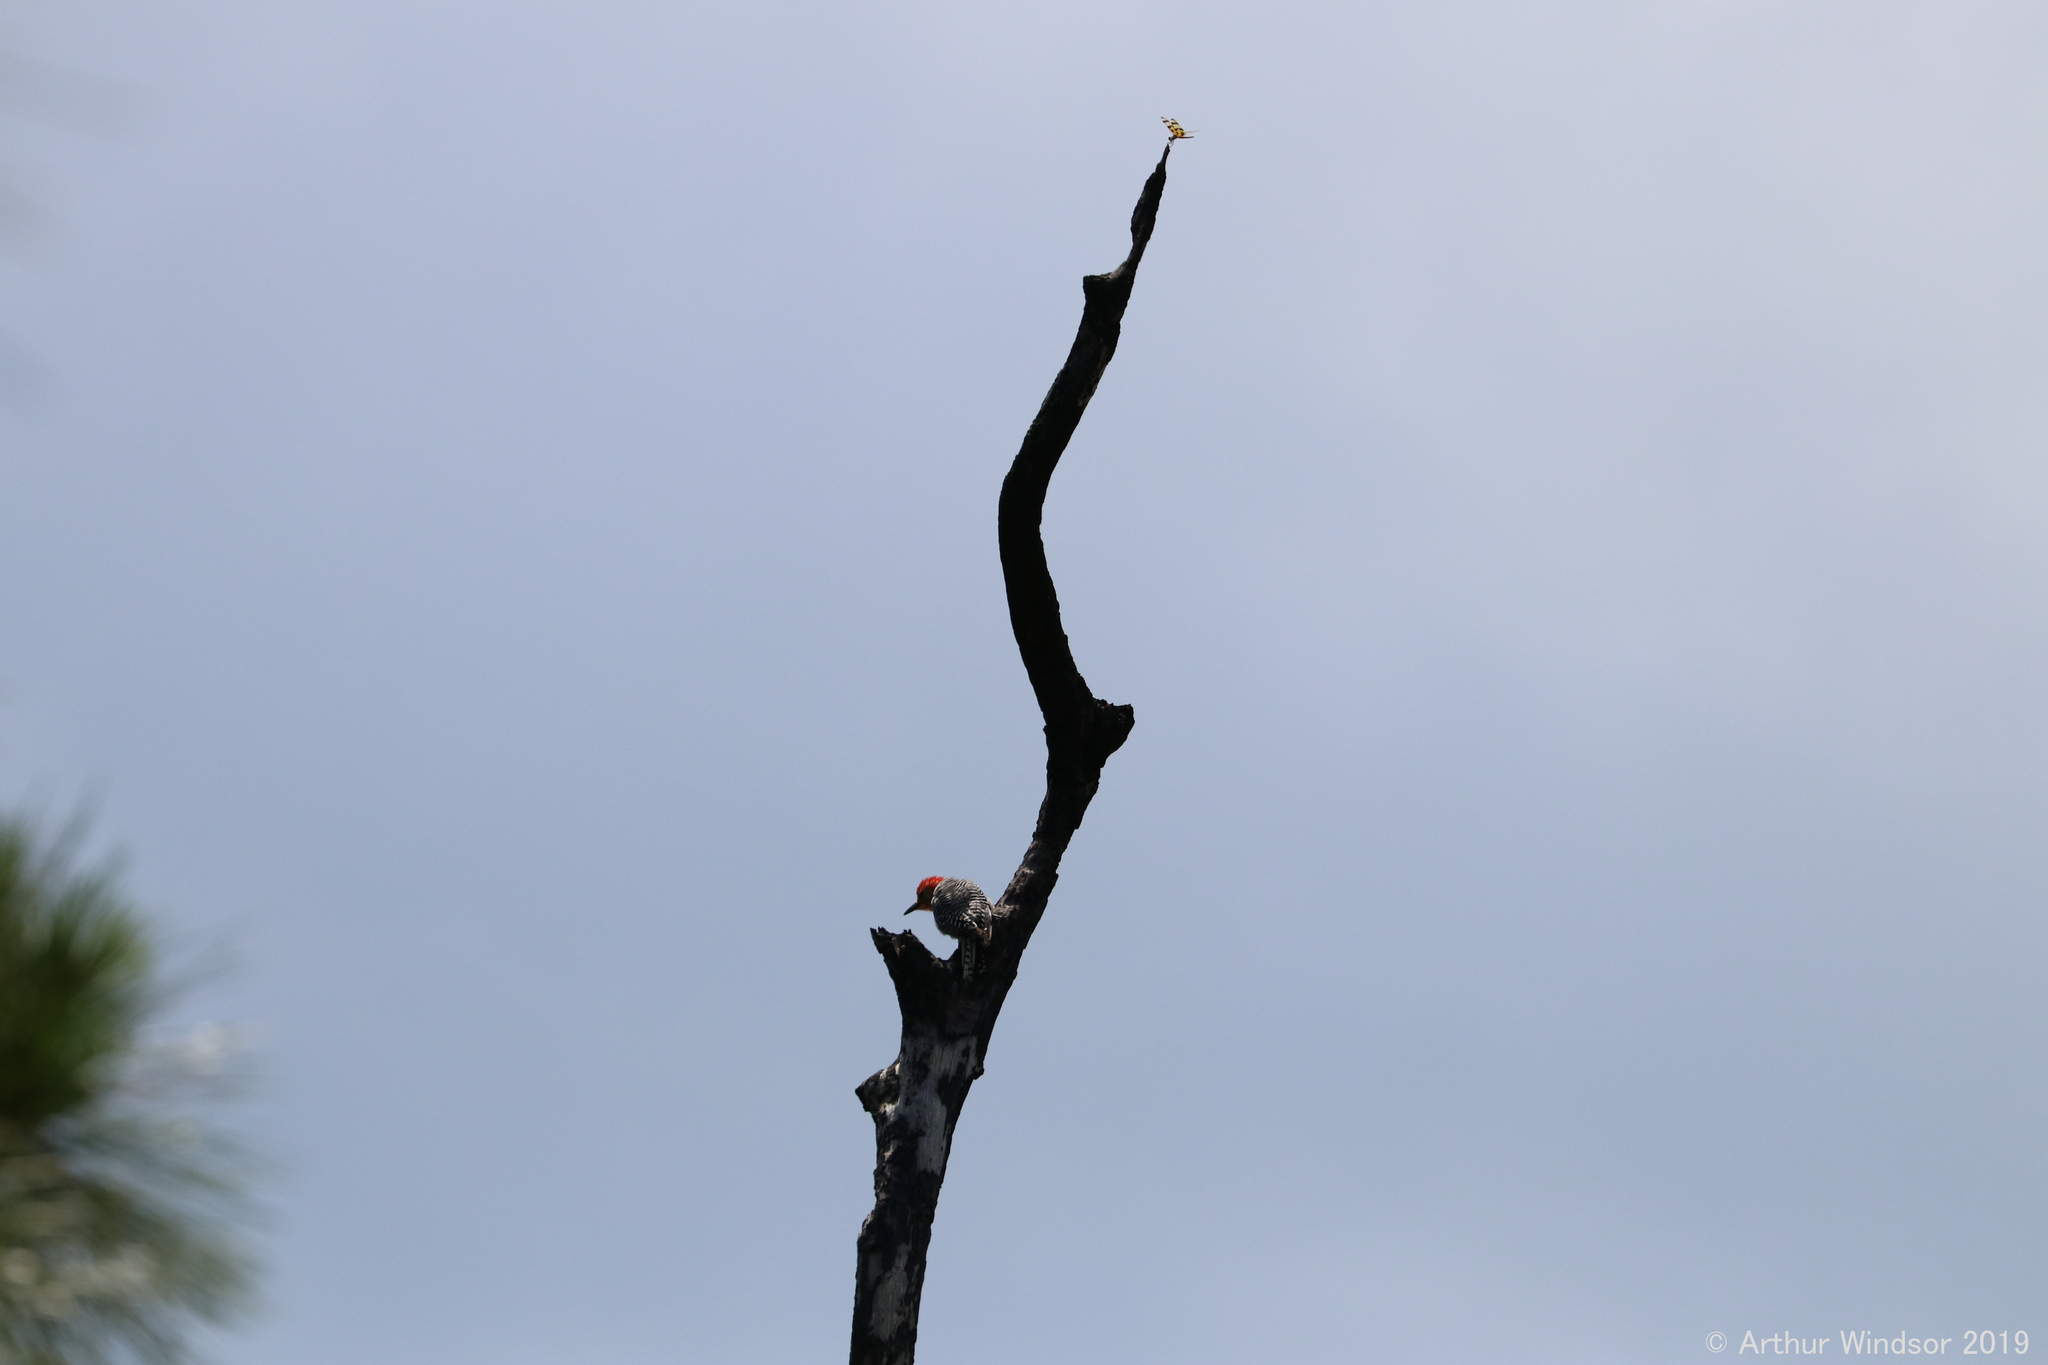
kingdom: Animalia
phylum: Chordata
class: Aves
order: Piciformes
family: Picidae
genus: Melanerpes
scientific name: Melanerpes carolinus
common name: Red-bellied woodpecker
